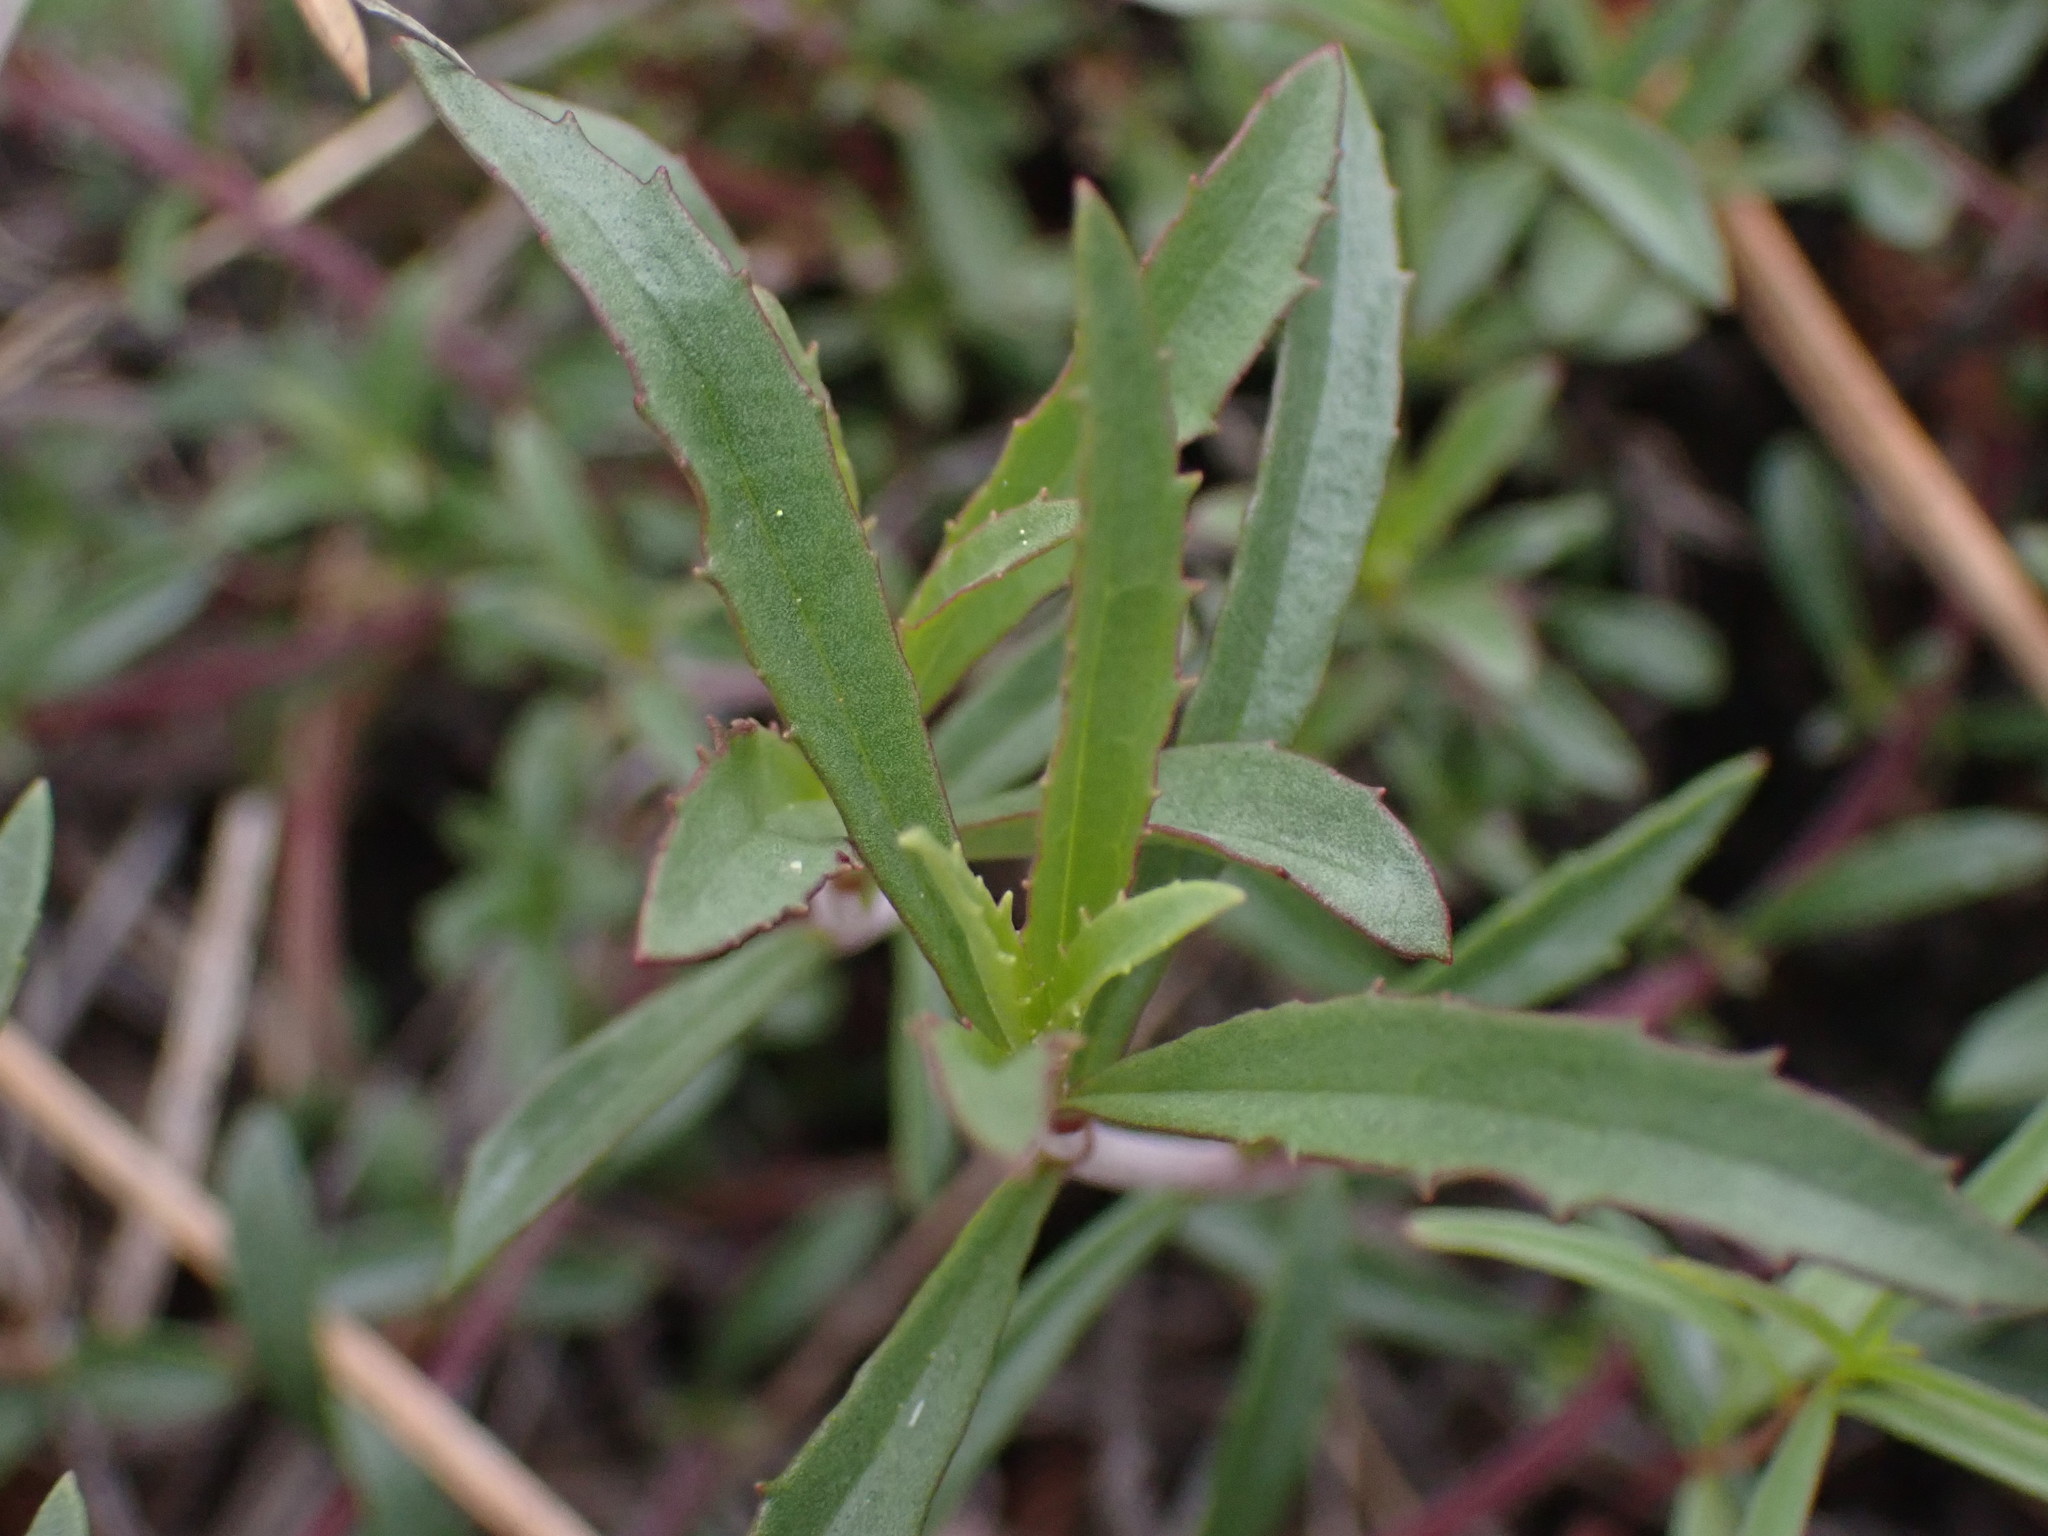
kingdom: Plantae
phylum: Tracheophyta
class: Magnoliopsida
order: Lamiales
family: Plantaginaceae
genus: Penstemon
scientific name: Penstemon fruticosus
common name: Bush penstemon
